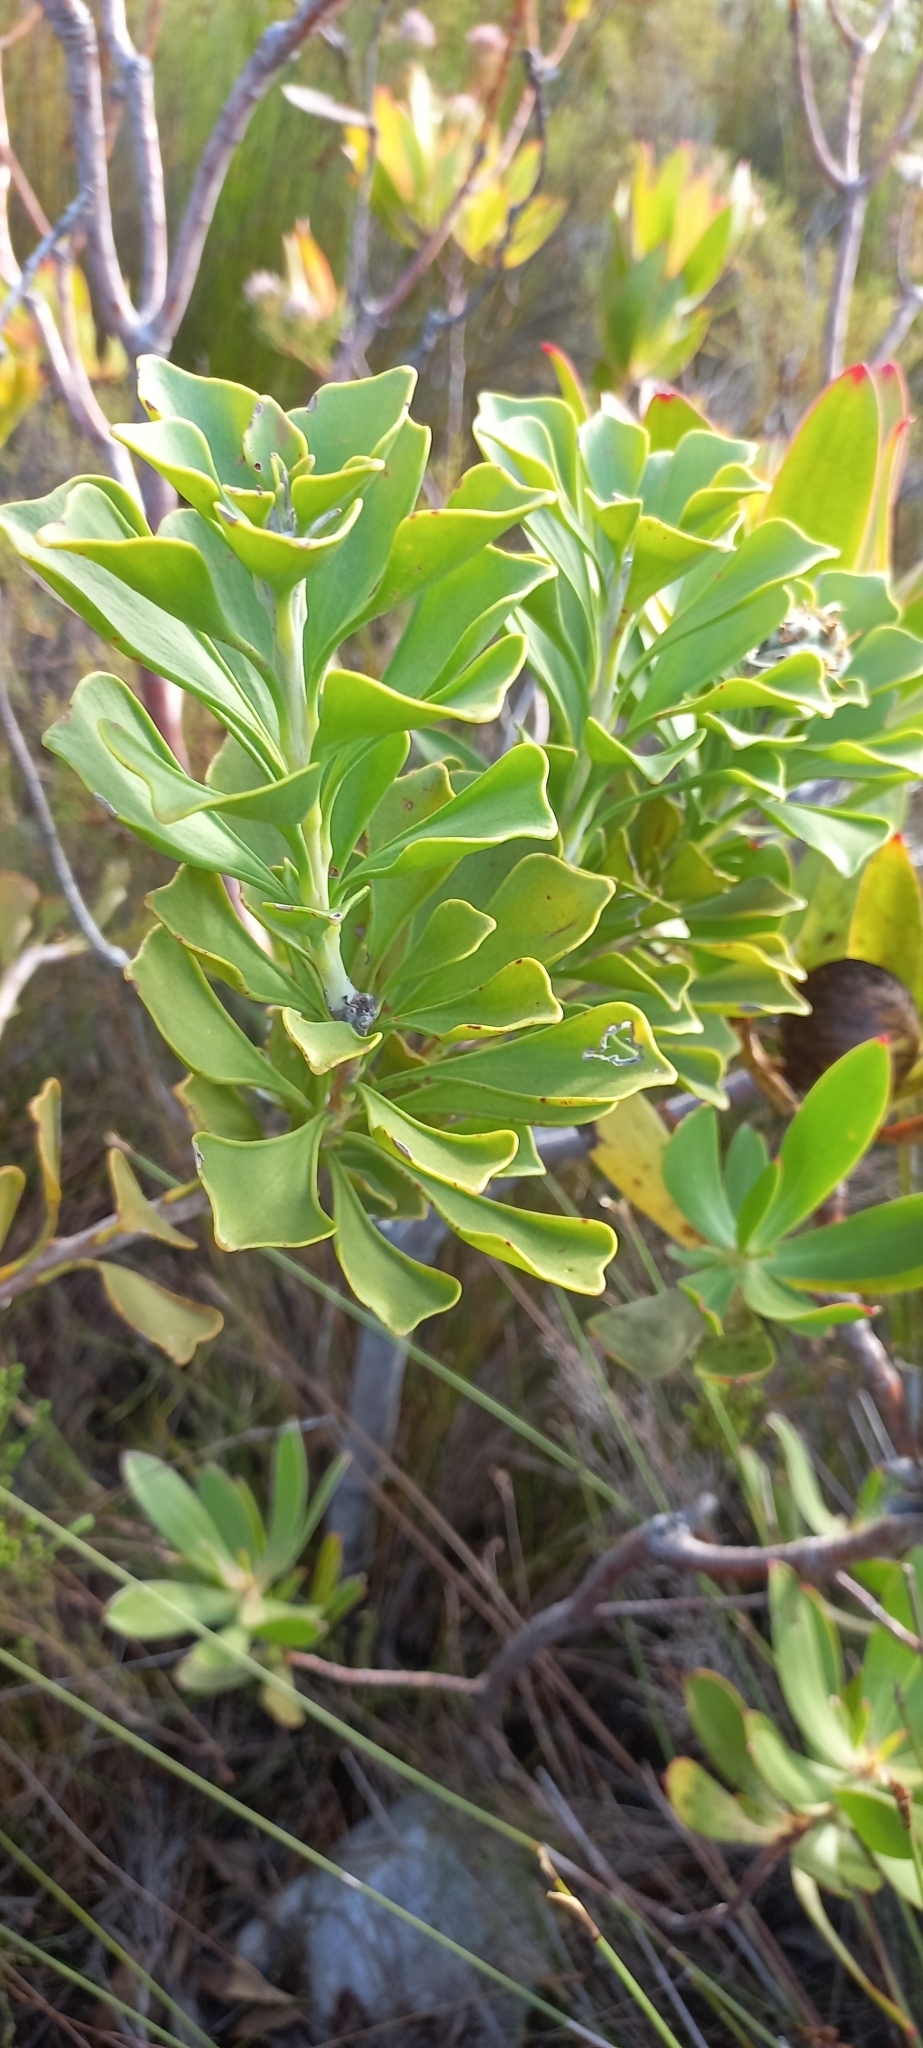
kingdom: Plantae
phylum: Tracheophyta
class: Magnoliopsida
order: Proteales
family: Proteaceae
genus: Paranomus
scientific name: Paranomus sceptrum-gustavianus
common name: King gustav's sceptre
